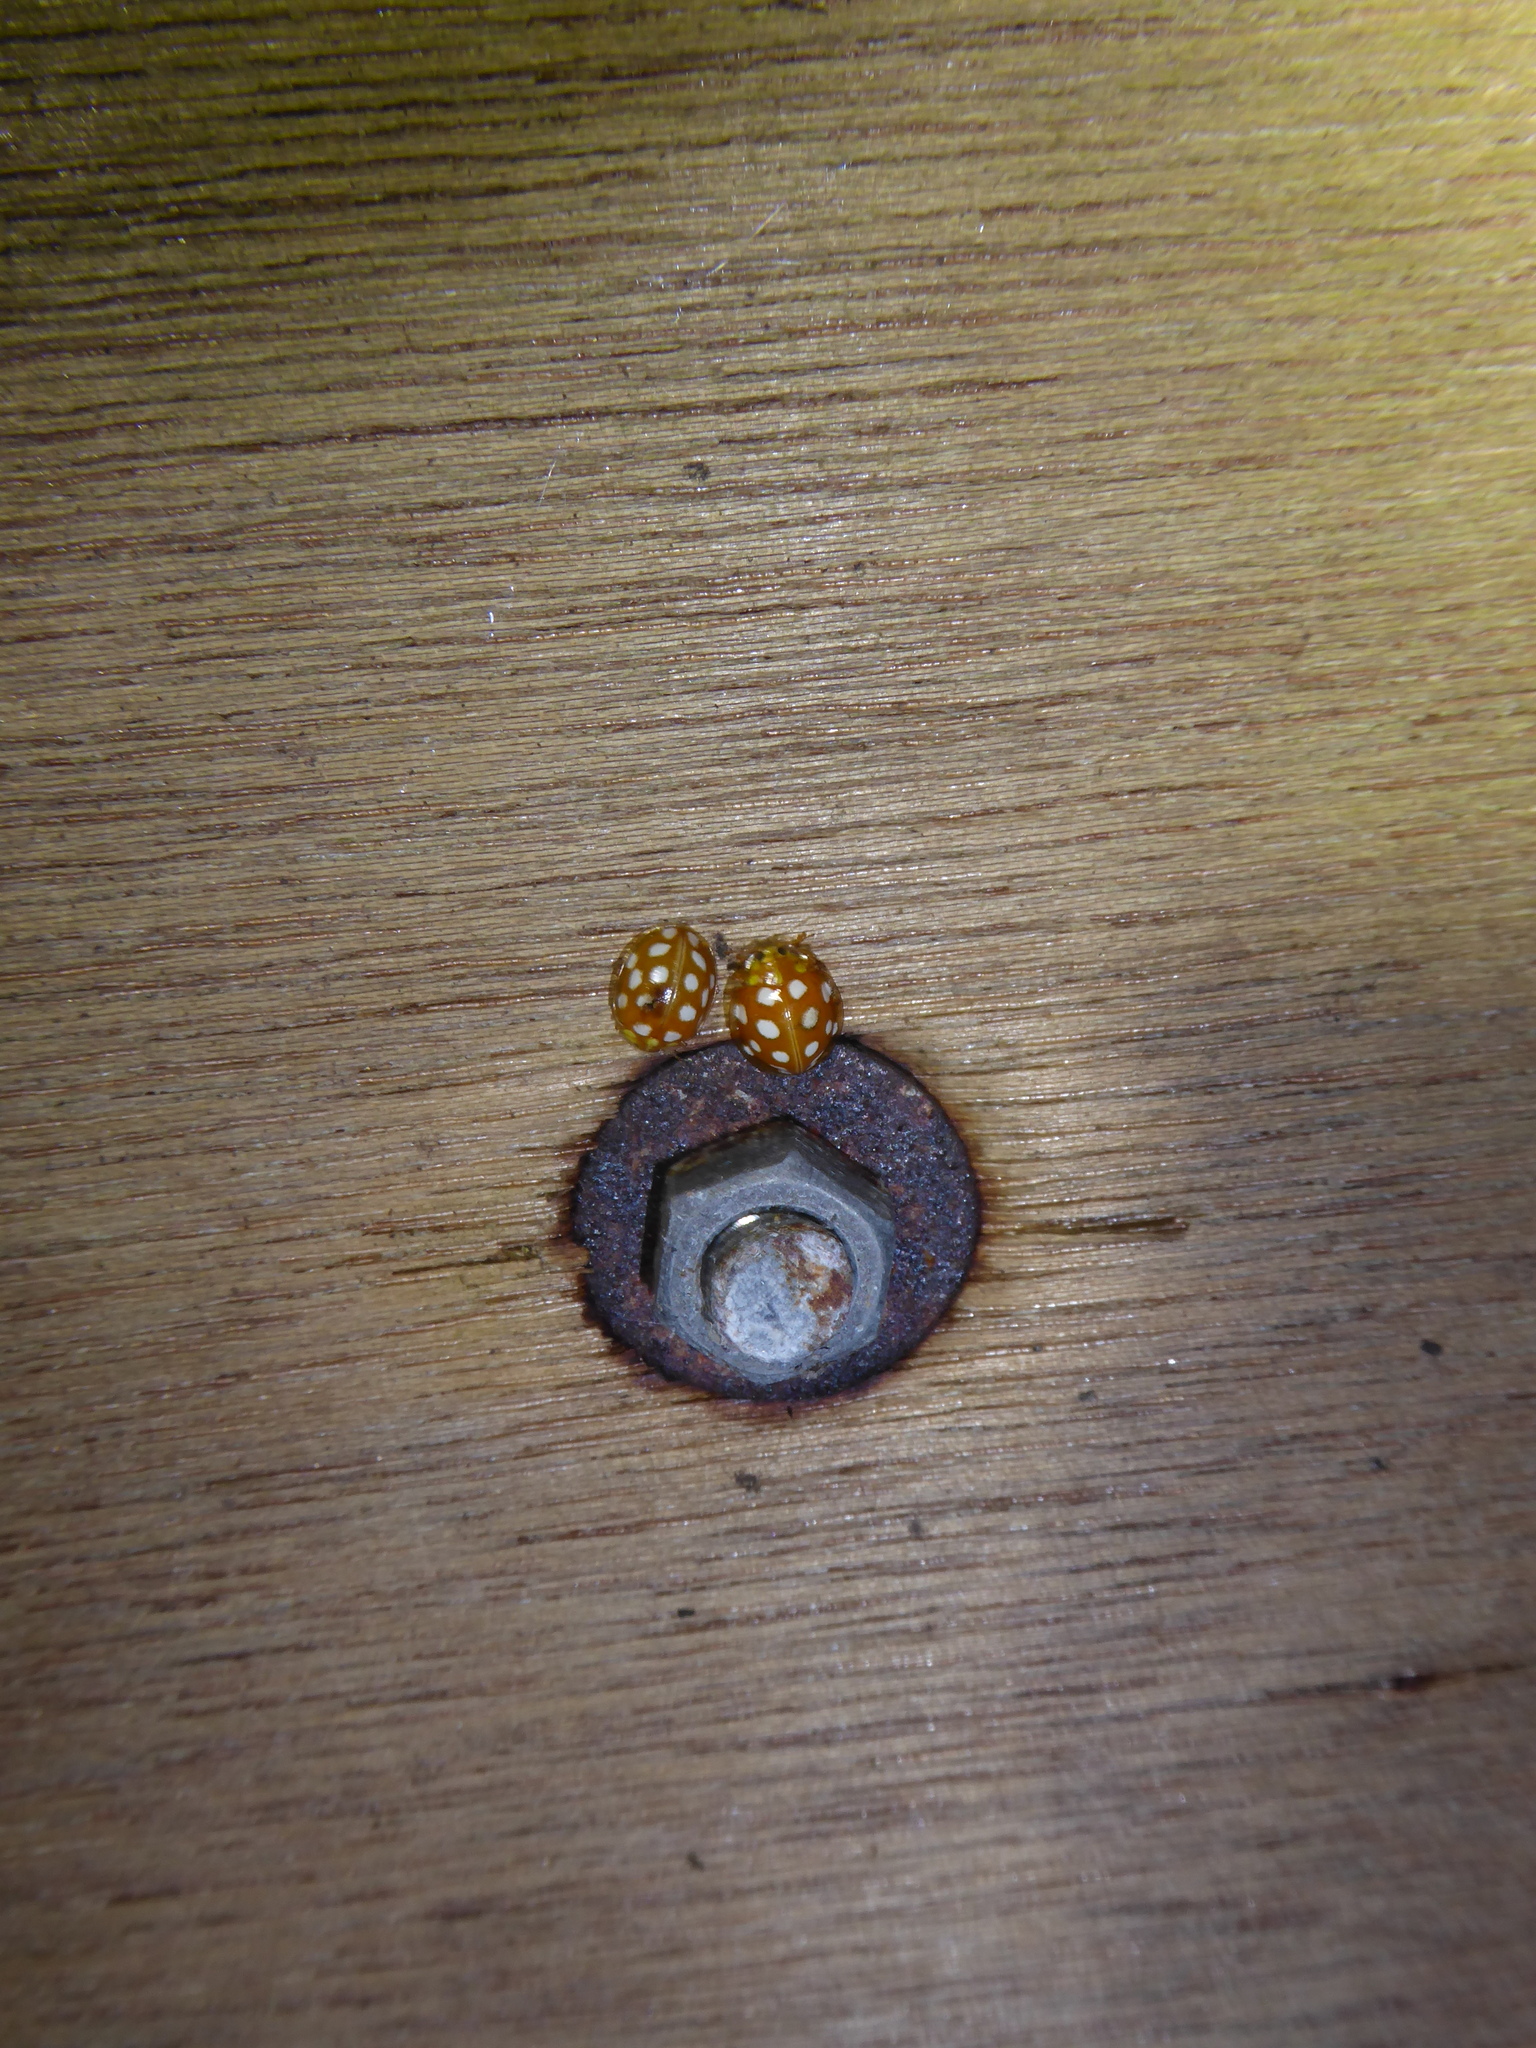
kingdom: Animalia
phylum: Arthropoda
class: Insecta
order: Coleoptera
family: Coccinellidae
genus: Halyzia
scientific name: Halyzia sedecimguttata
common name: Orange ladybird
